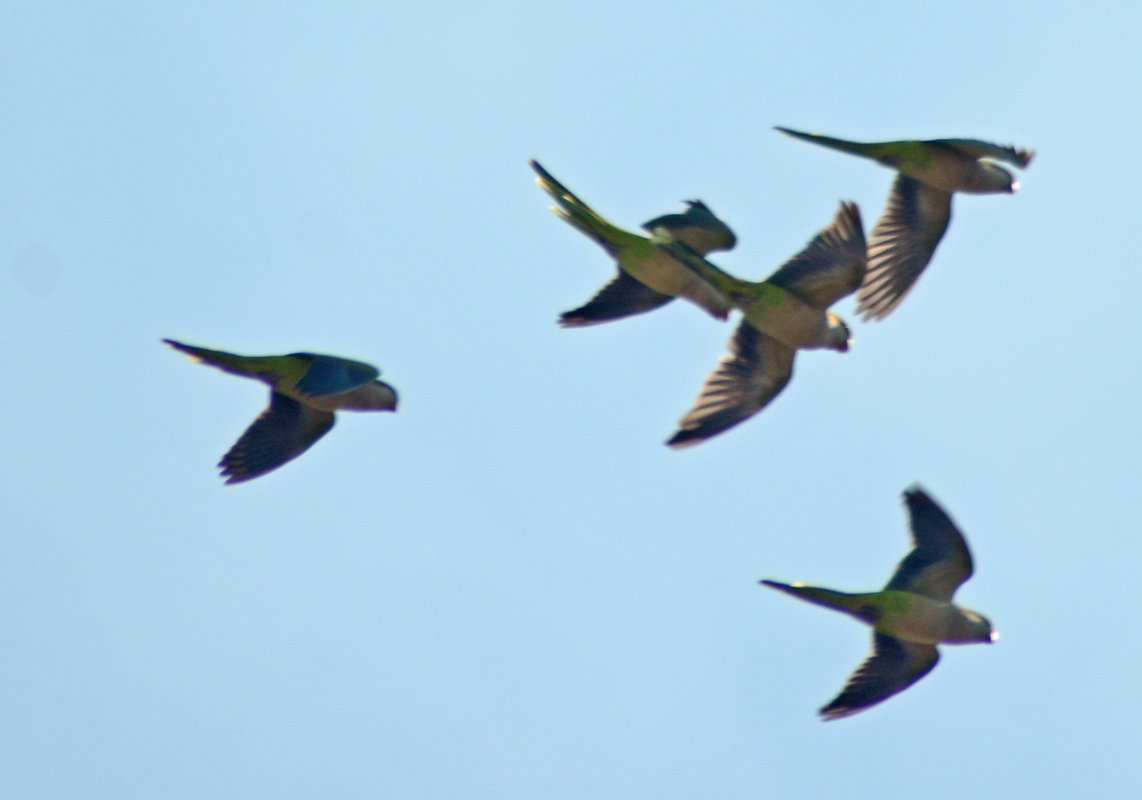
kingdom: Animalia
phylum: Chordata
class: Aves
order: Psittaciformes
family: Psittacidae
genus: Myiopsitta
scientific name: Myiopsitta monachus
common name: Monk parakeet
